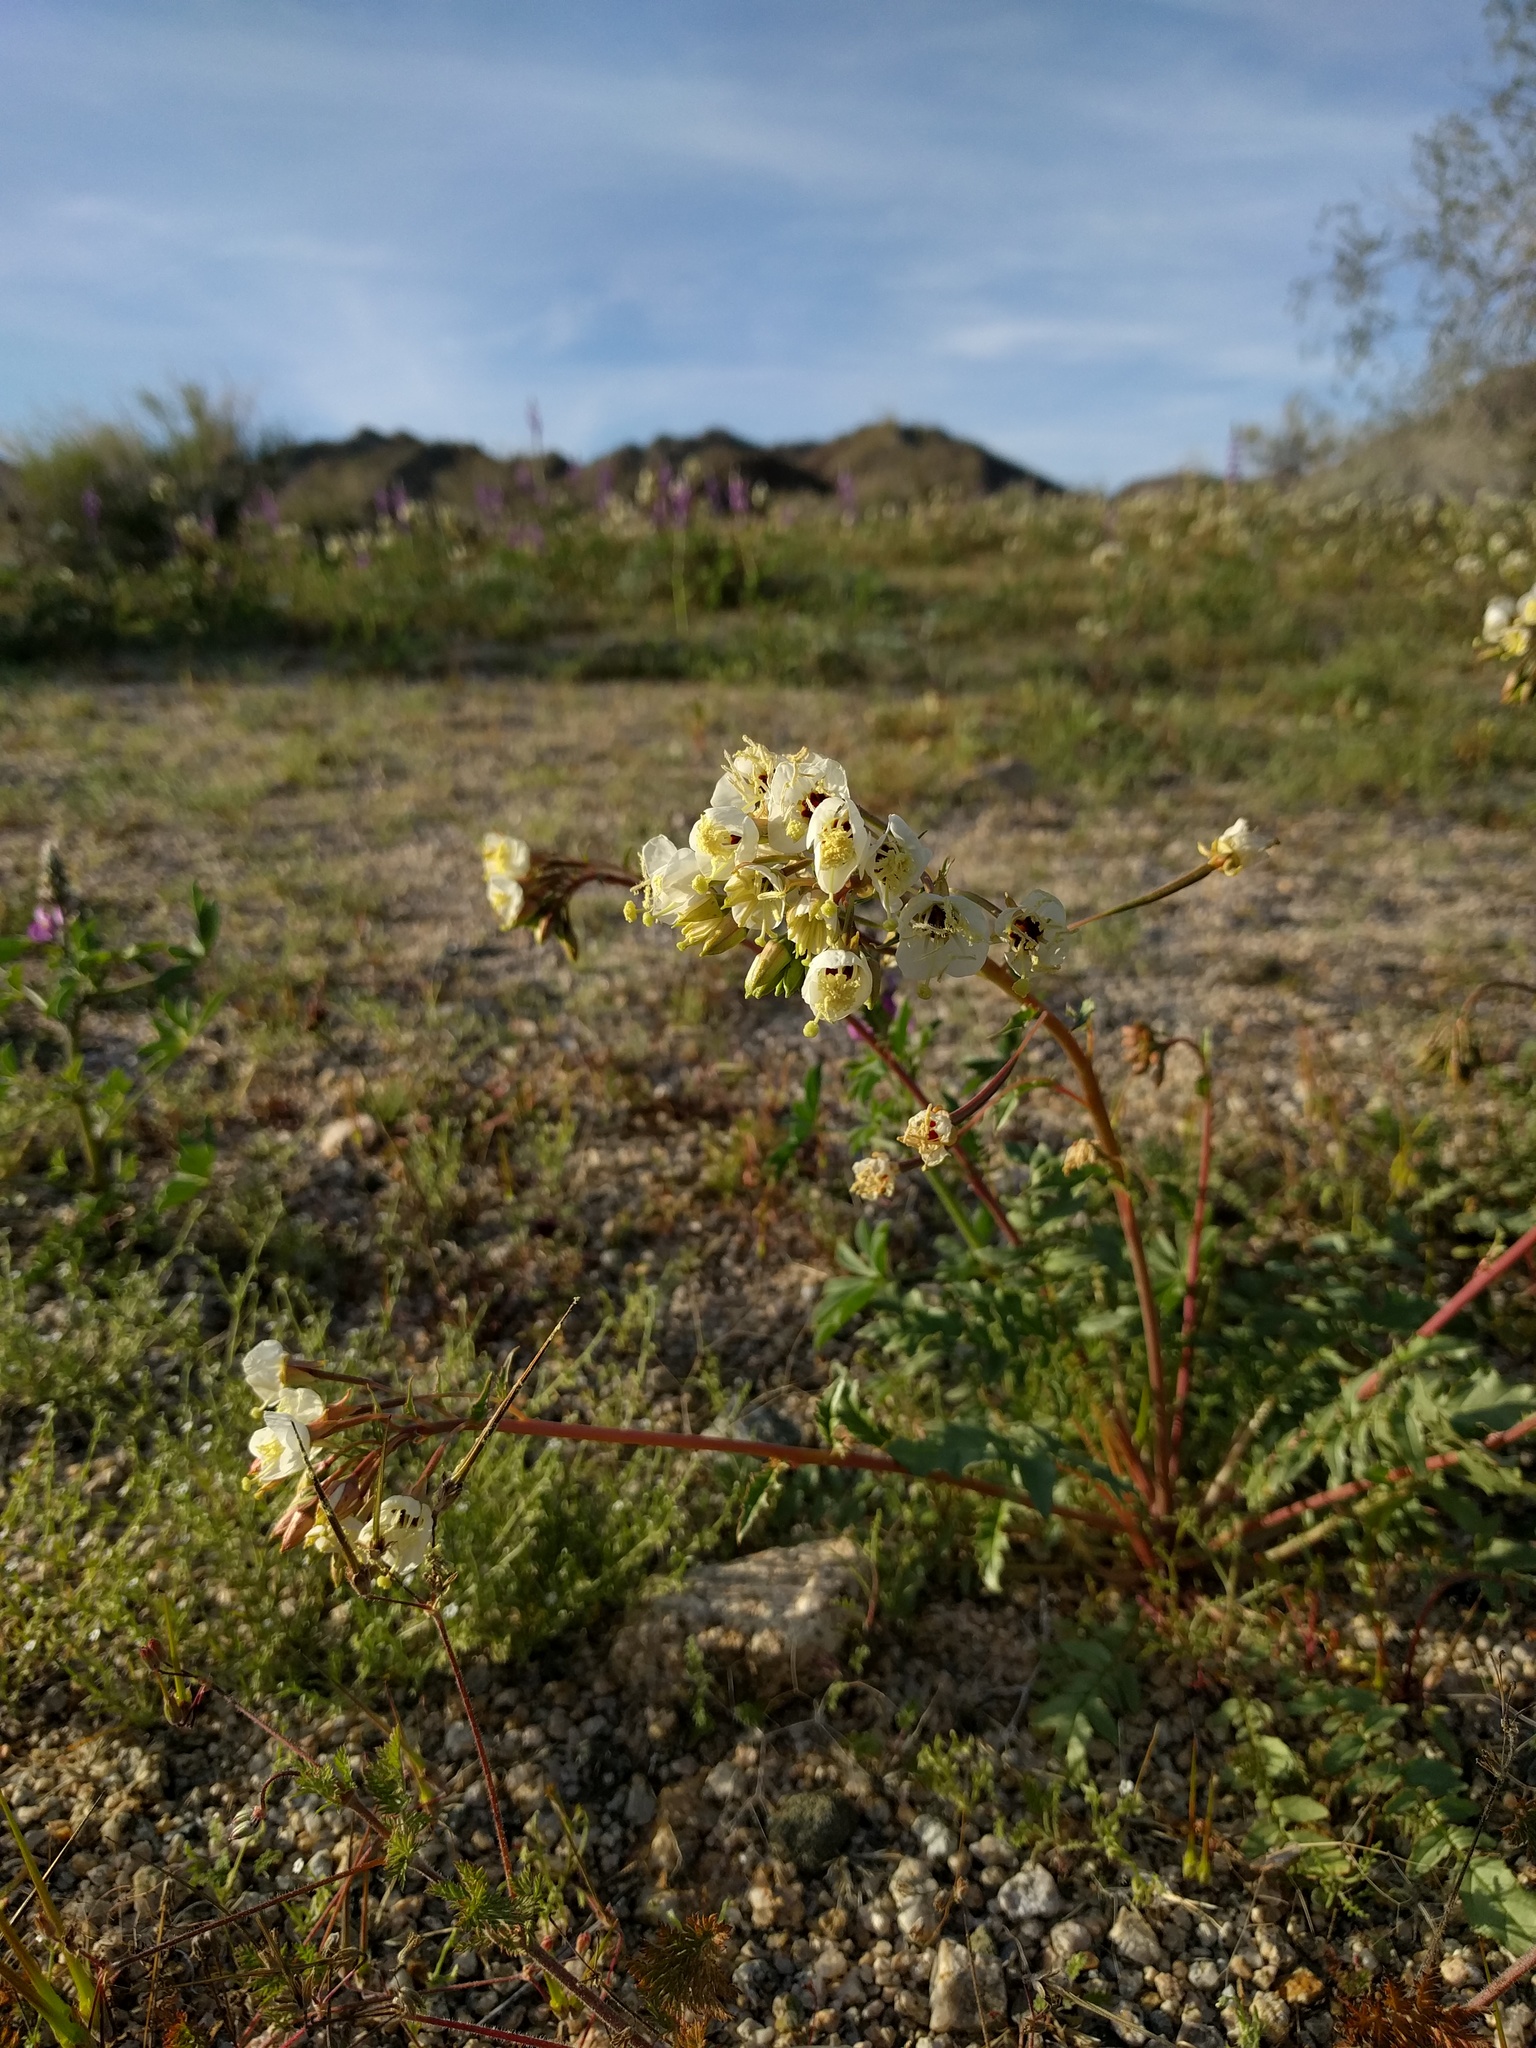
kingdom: Plantae
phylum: Tracheophyta
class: Magnoliopsida
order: Myrtales
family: Onagraceae
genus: Chylismia
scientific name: Chylismia claviformis
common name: Browneyes
